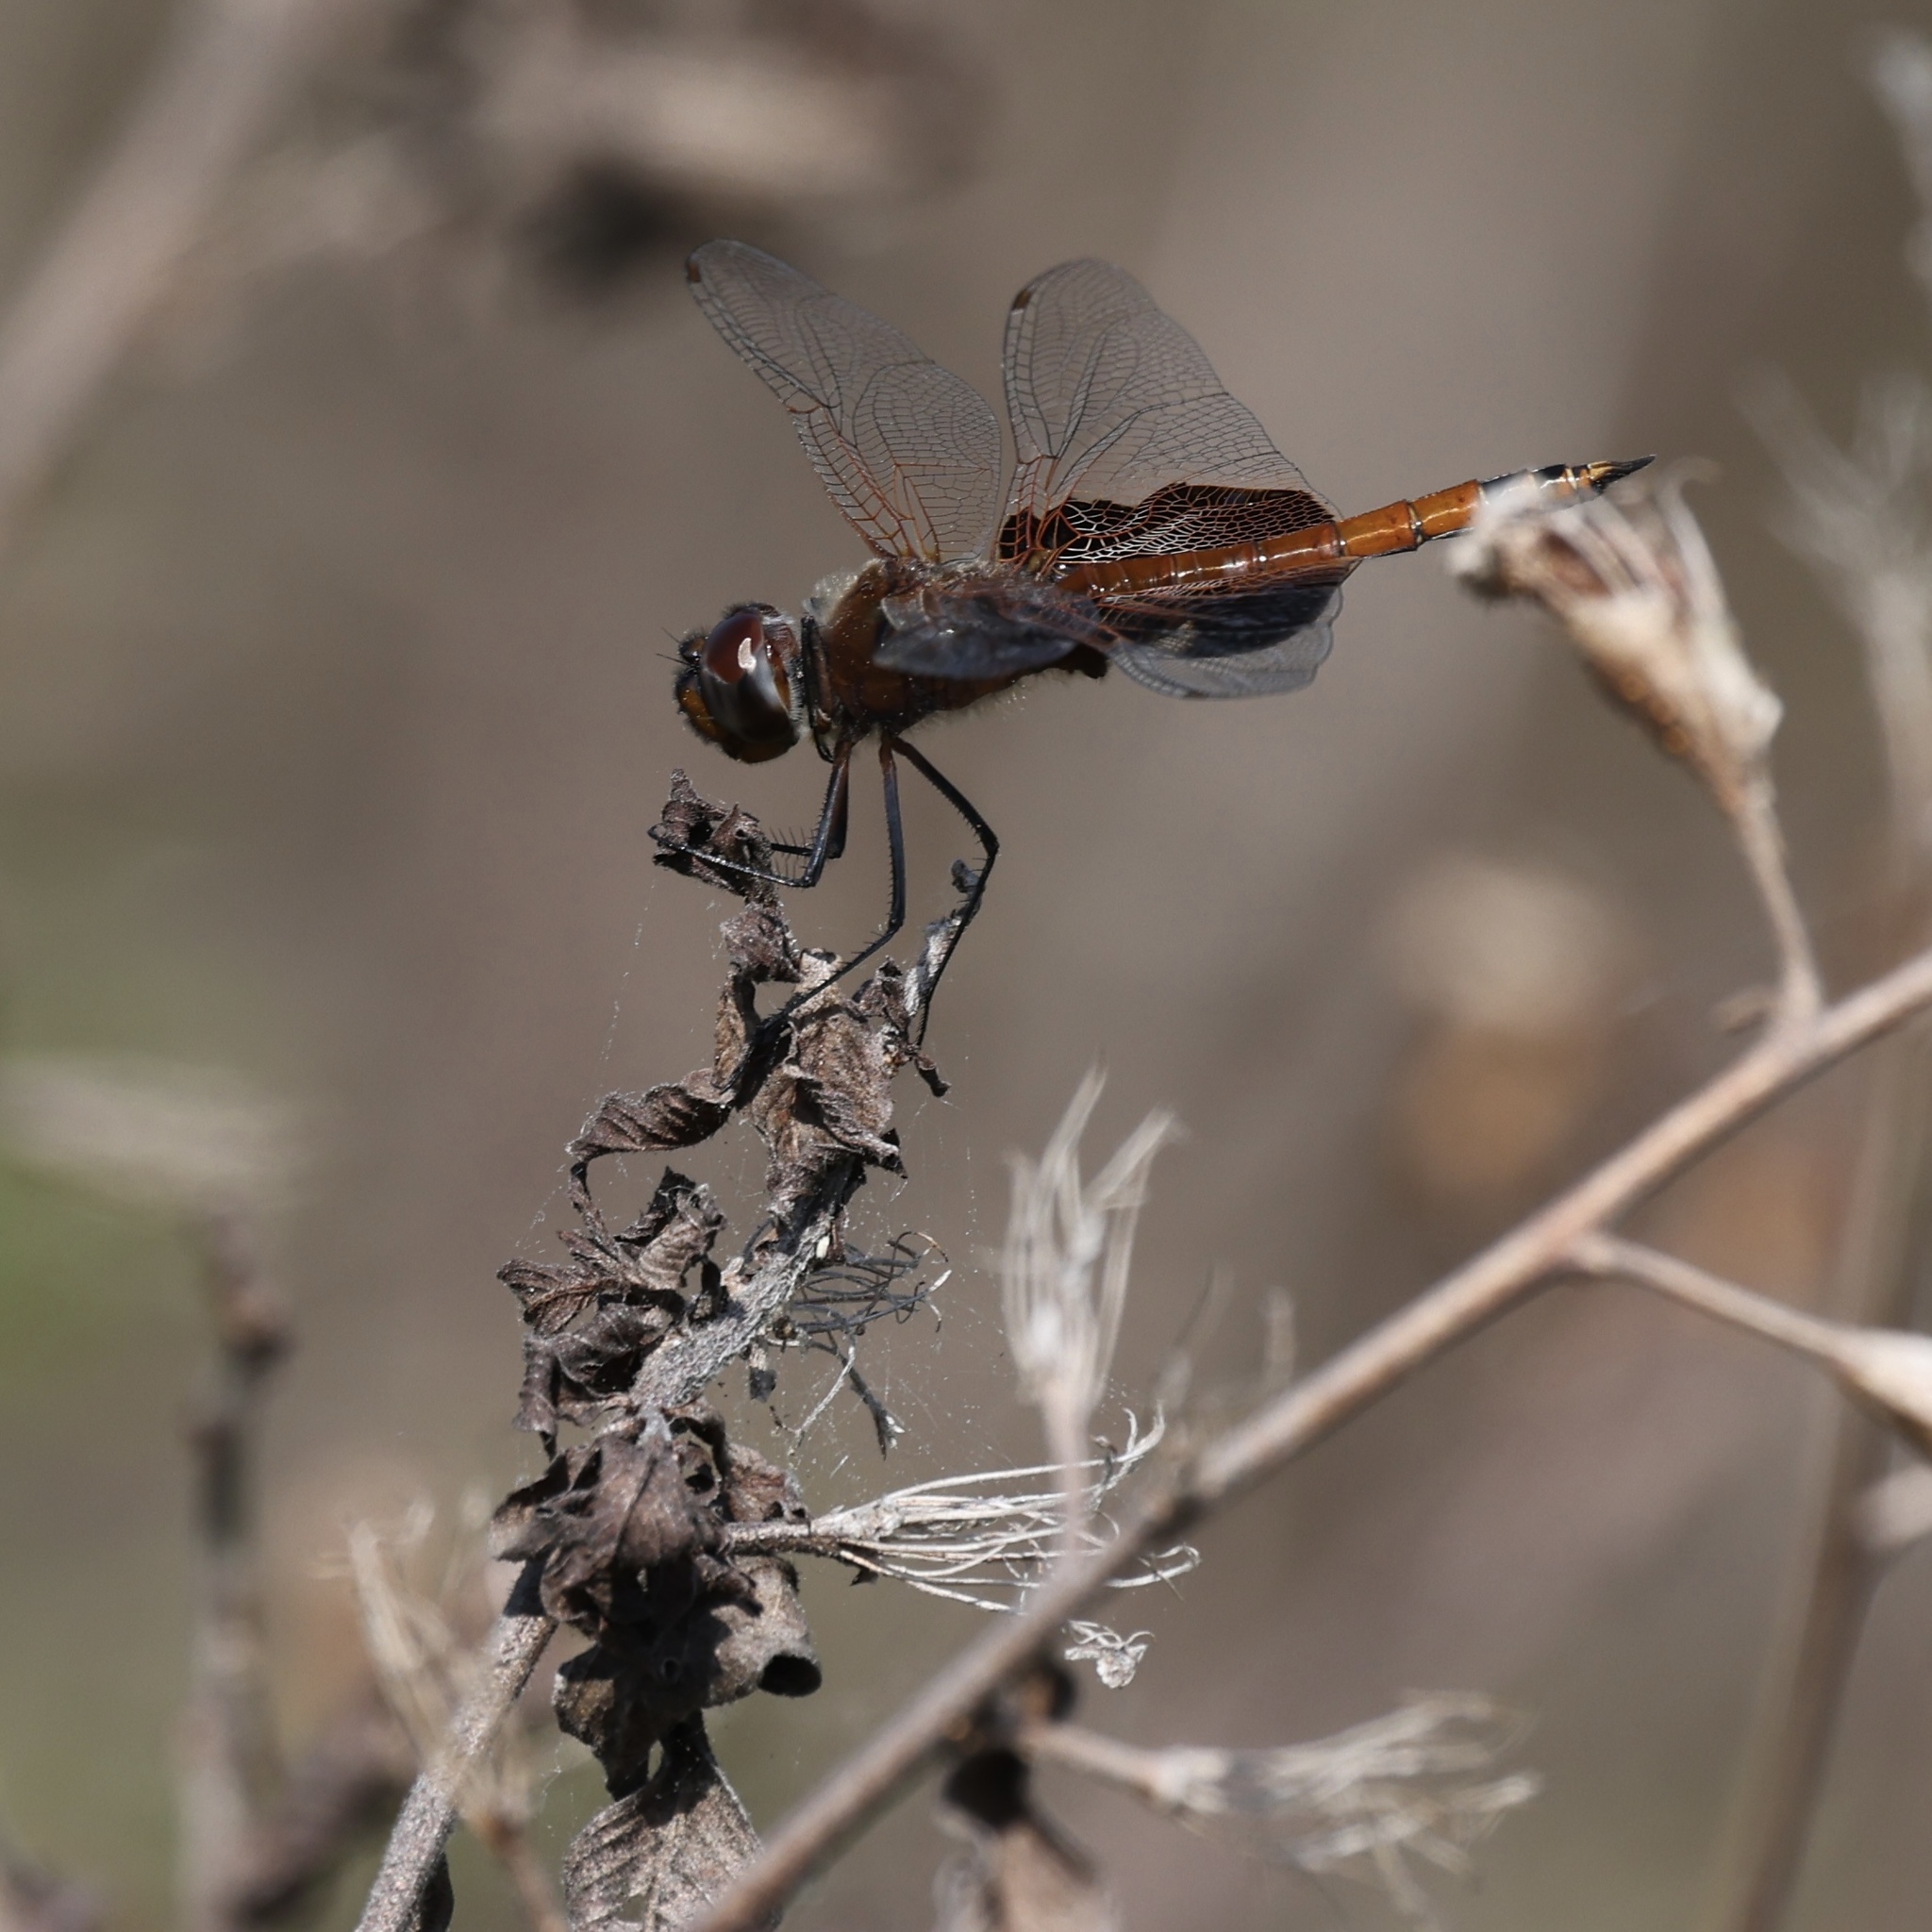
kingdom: Animalia
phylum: Arthropoda
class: Insecta
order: Odonata
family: Libellulidae
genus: Tramea
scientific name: Tramea carolina
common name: Carolina saddlebags
